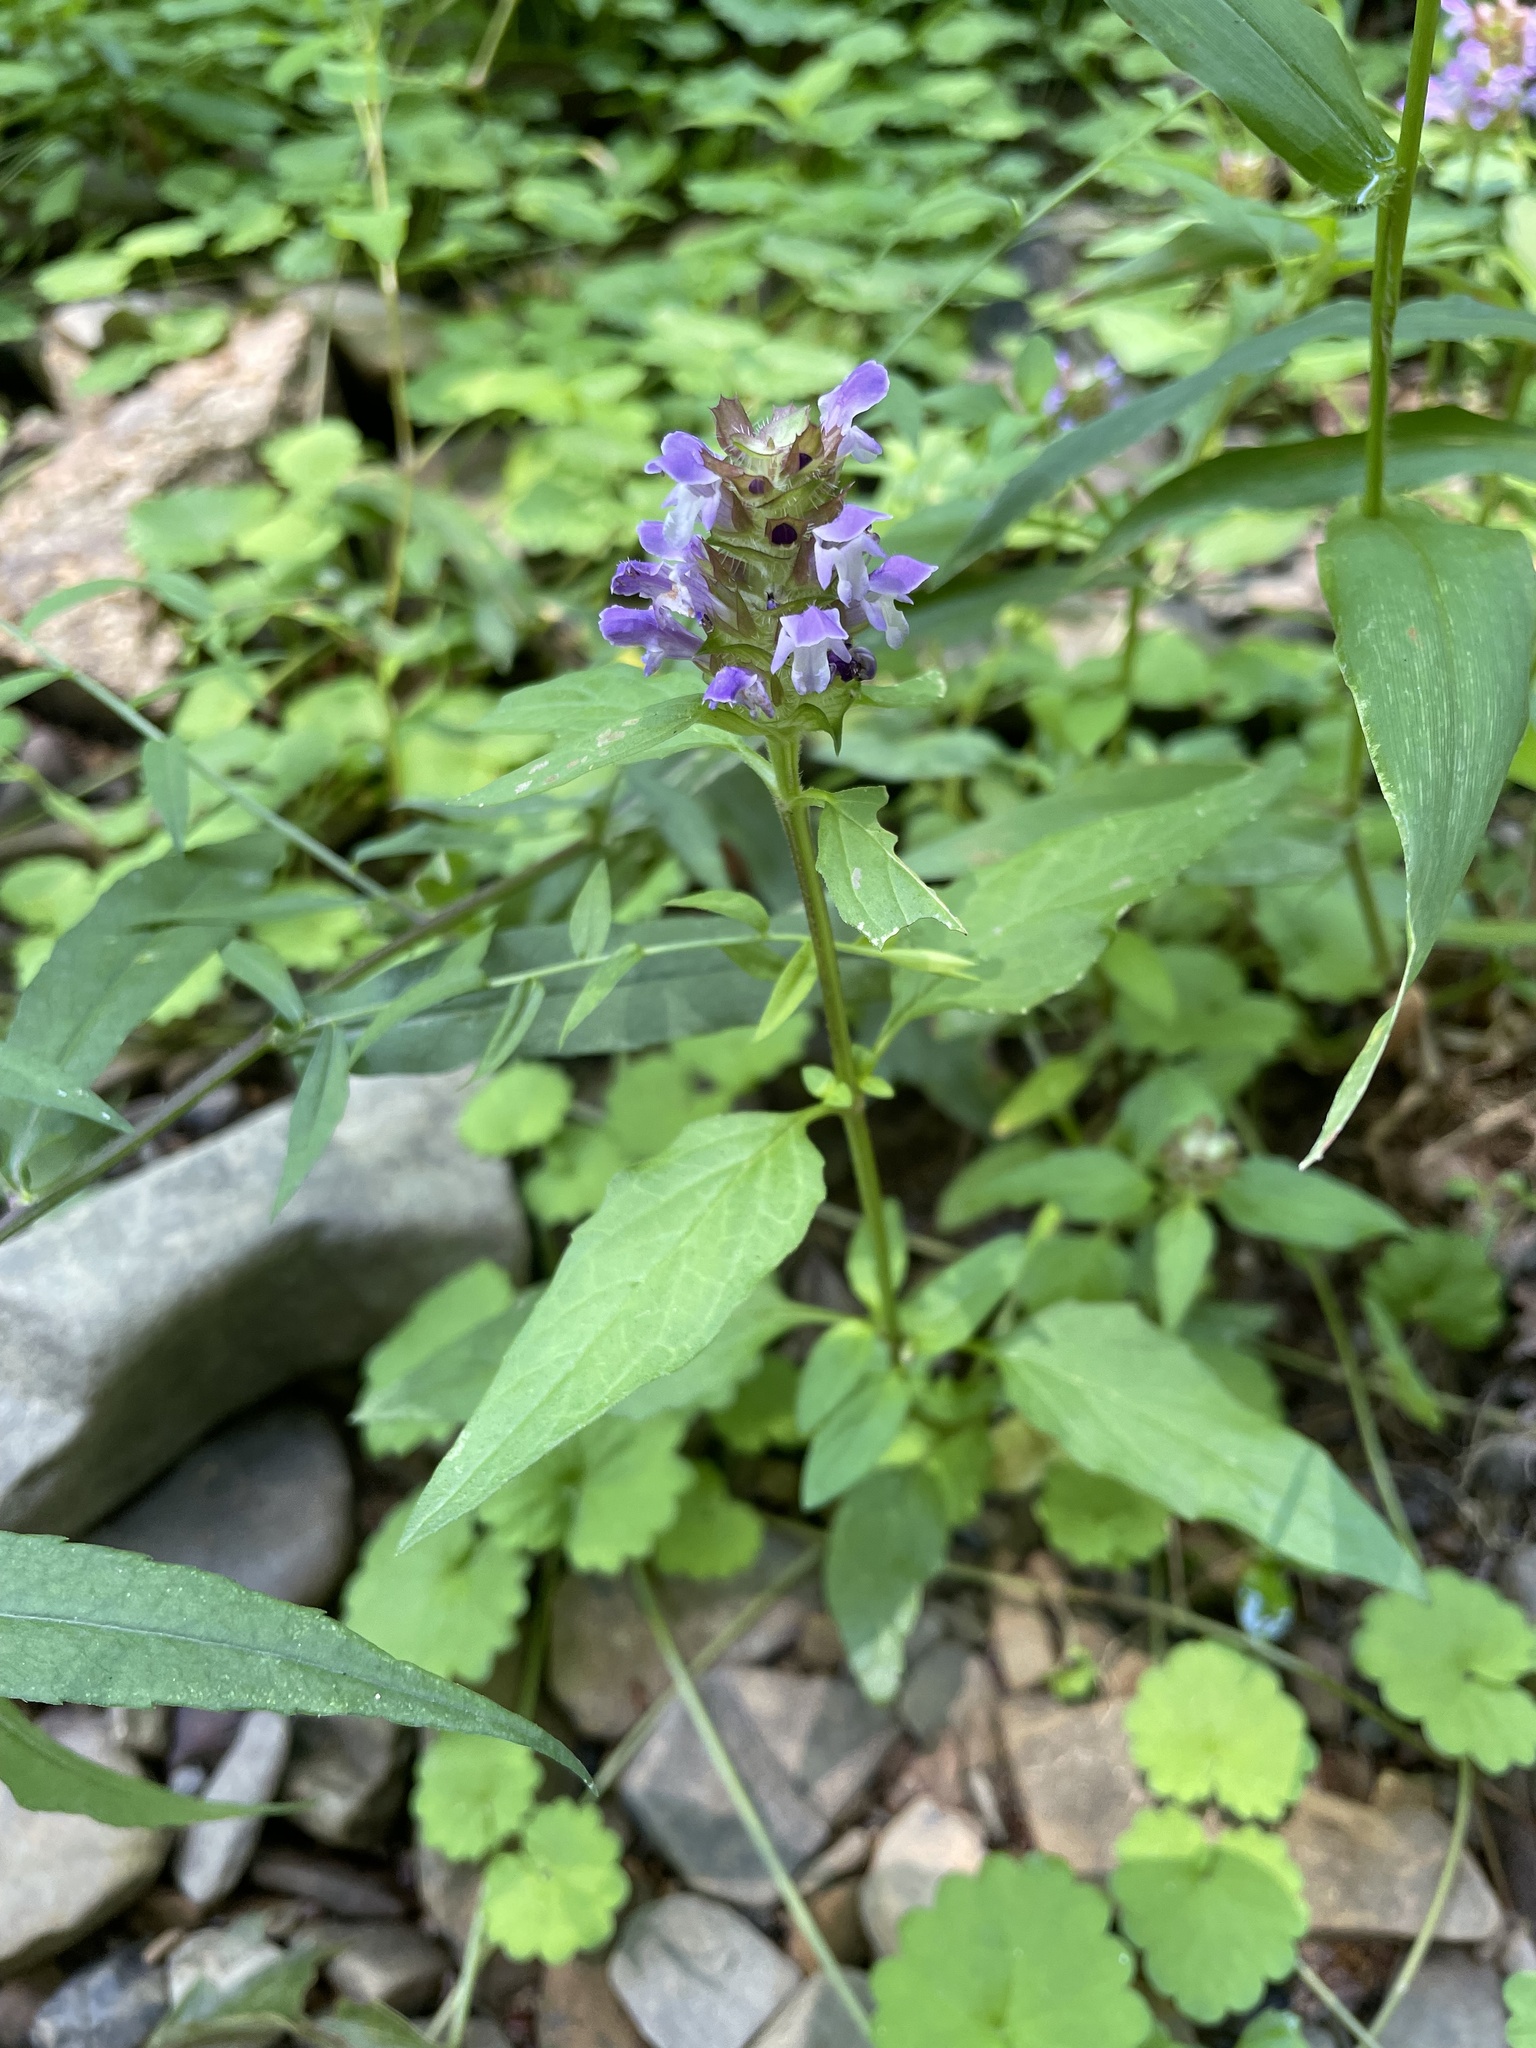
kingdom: Plantae
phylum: Tracheophyta
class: Magnoliopsida
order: Lamiales
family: Lamiaceae
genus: Prunella
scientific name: Prunella vulgaris
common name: Heal-all
